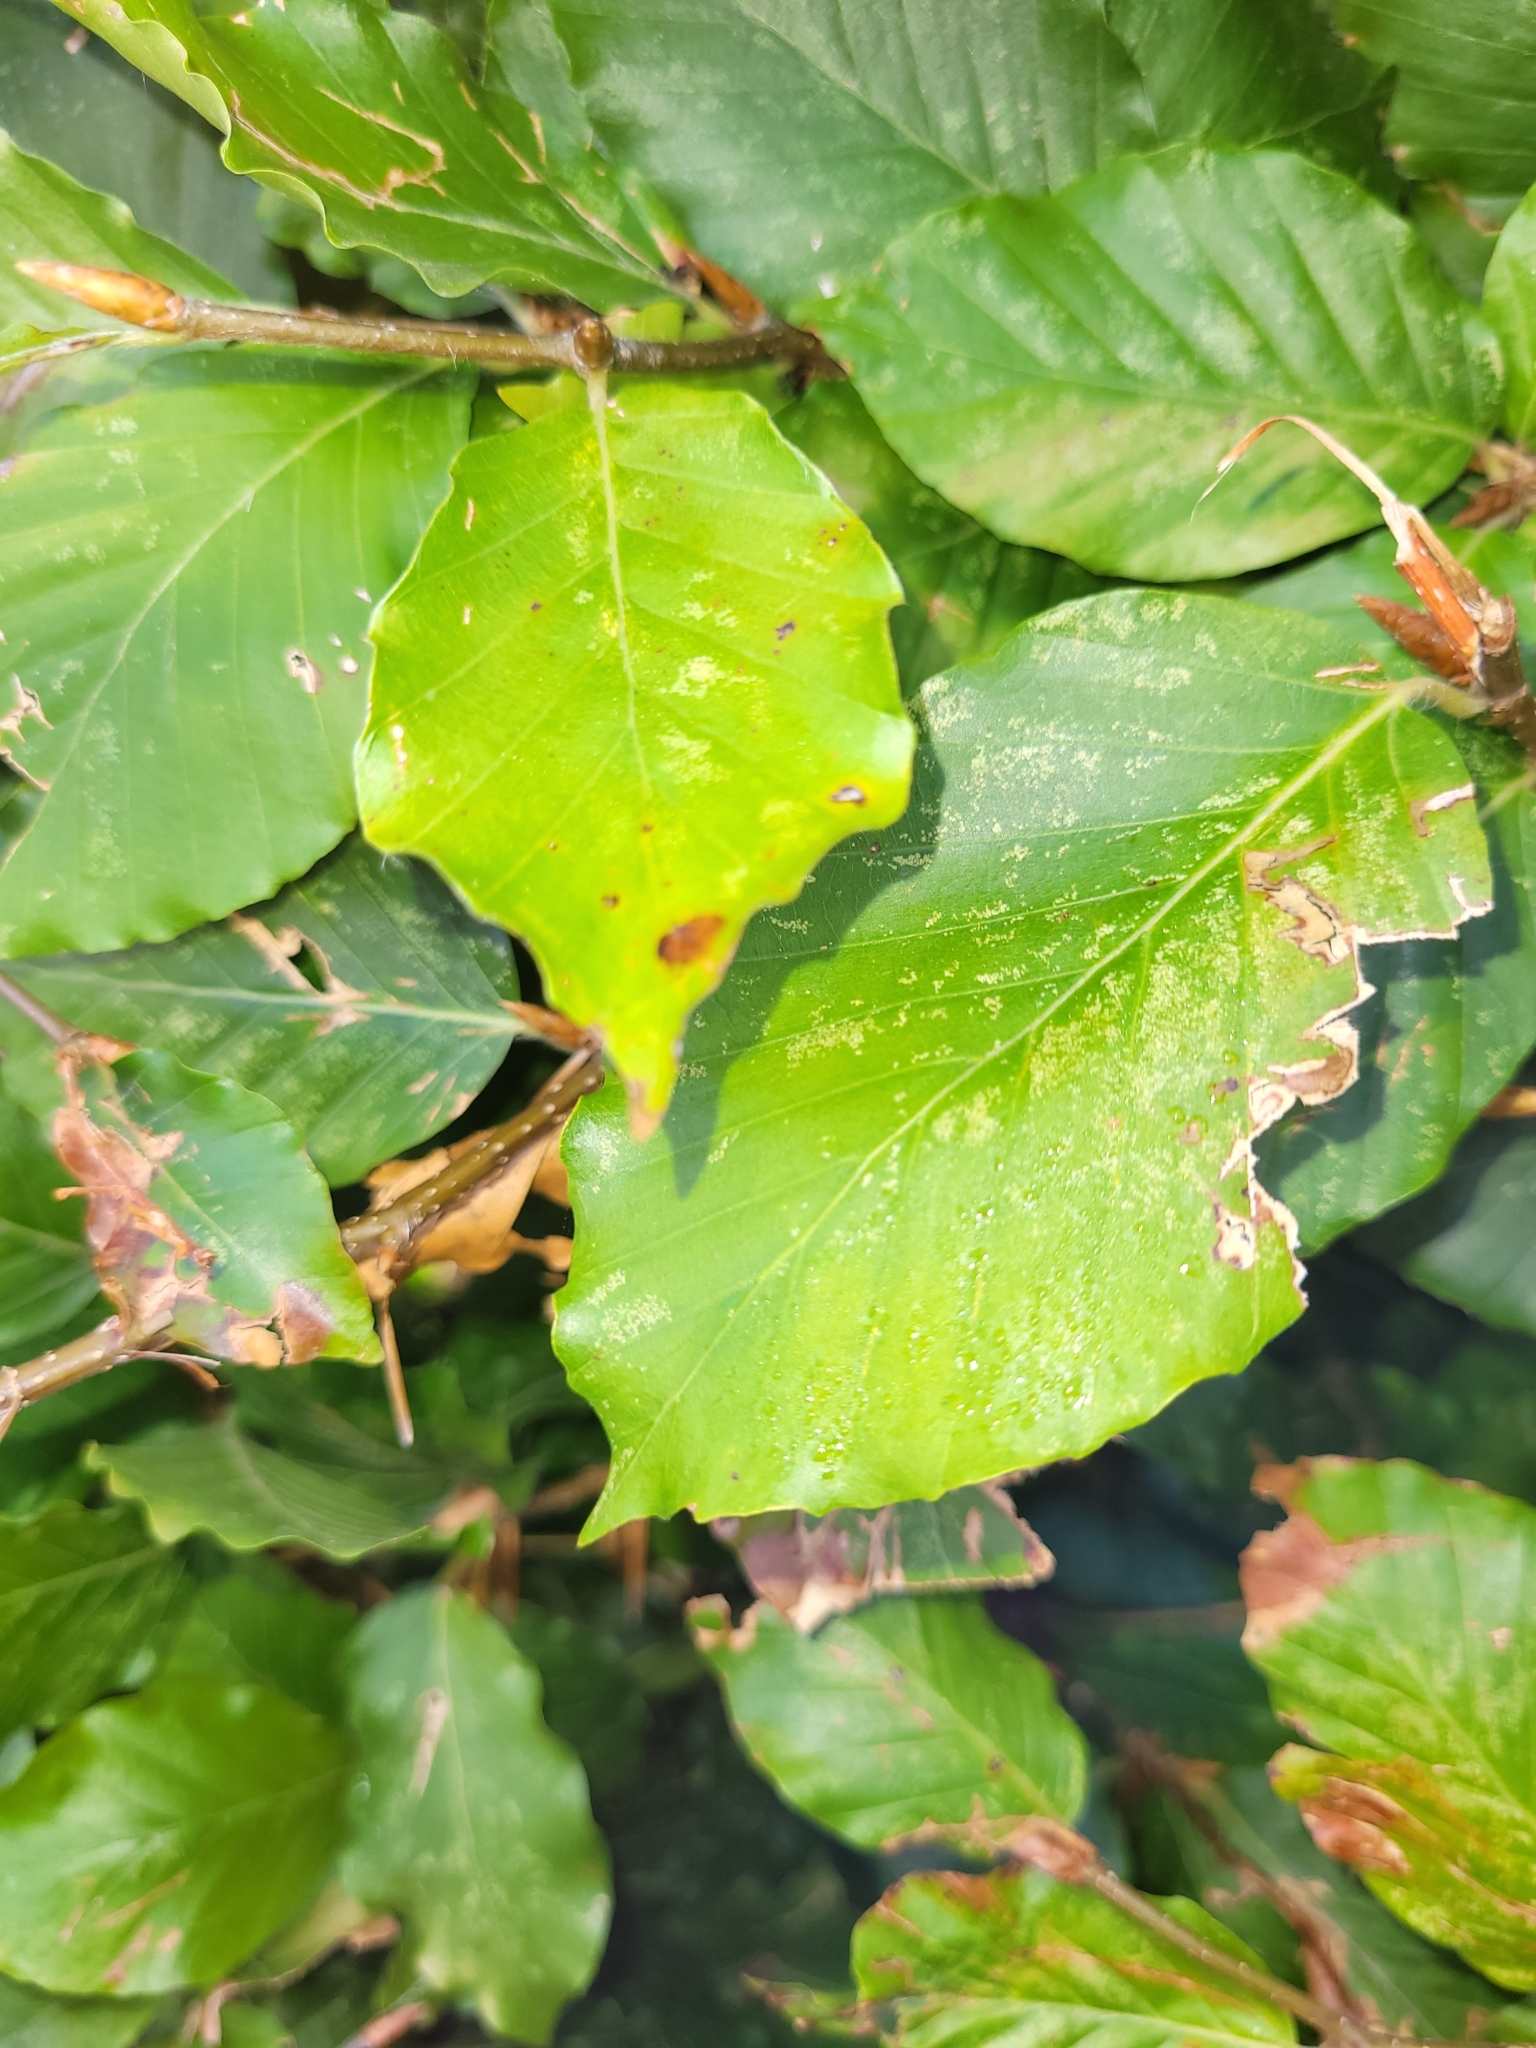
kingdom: Plantae
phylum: Tracheophyta
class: Magnoliopsida
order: Fagales
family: Fagaceae
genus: Fagus
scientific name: Fagus sylvatica
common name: Beech
